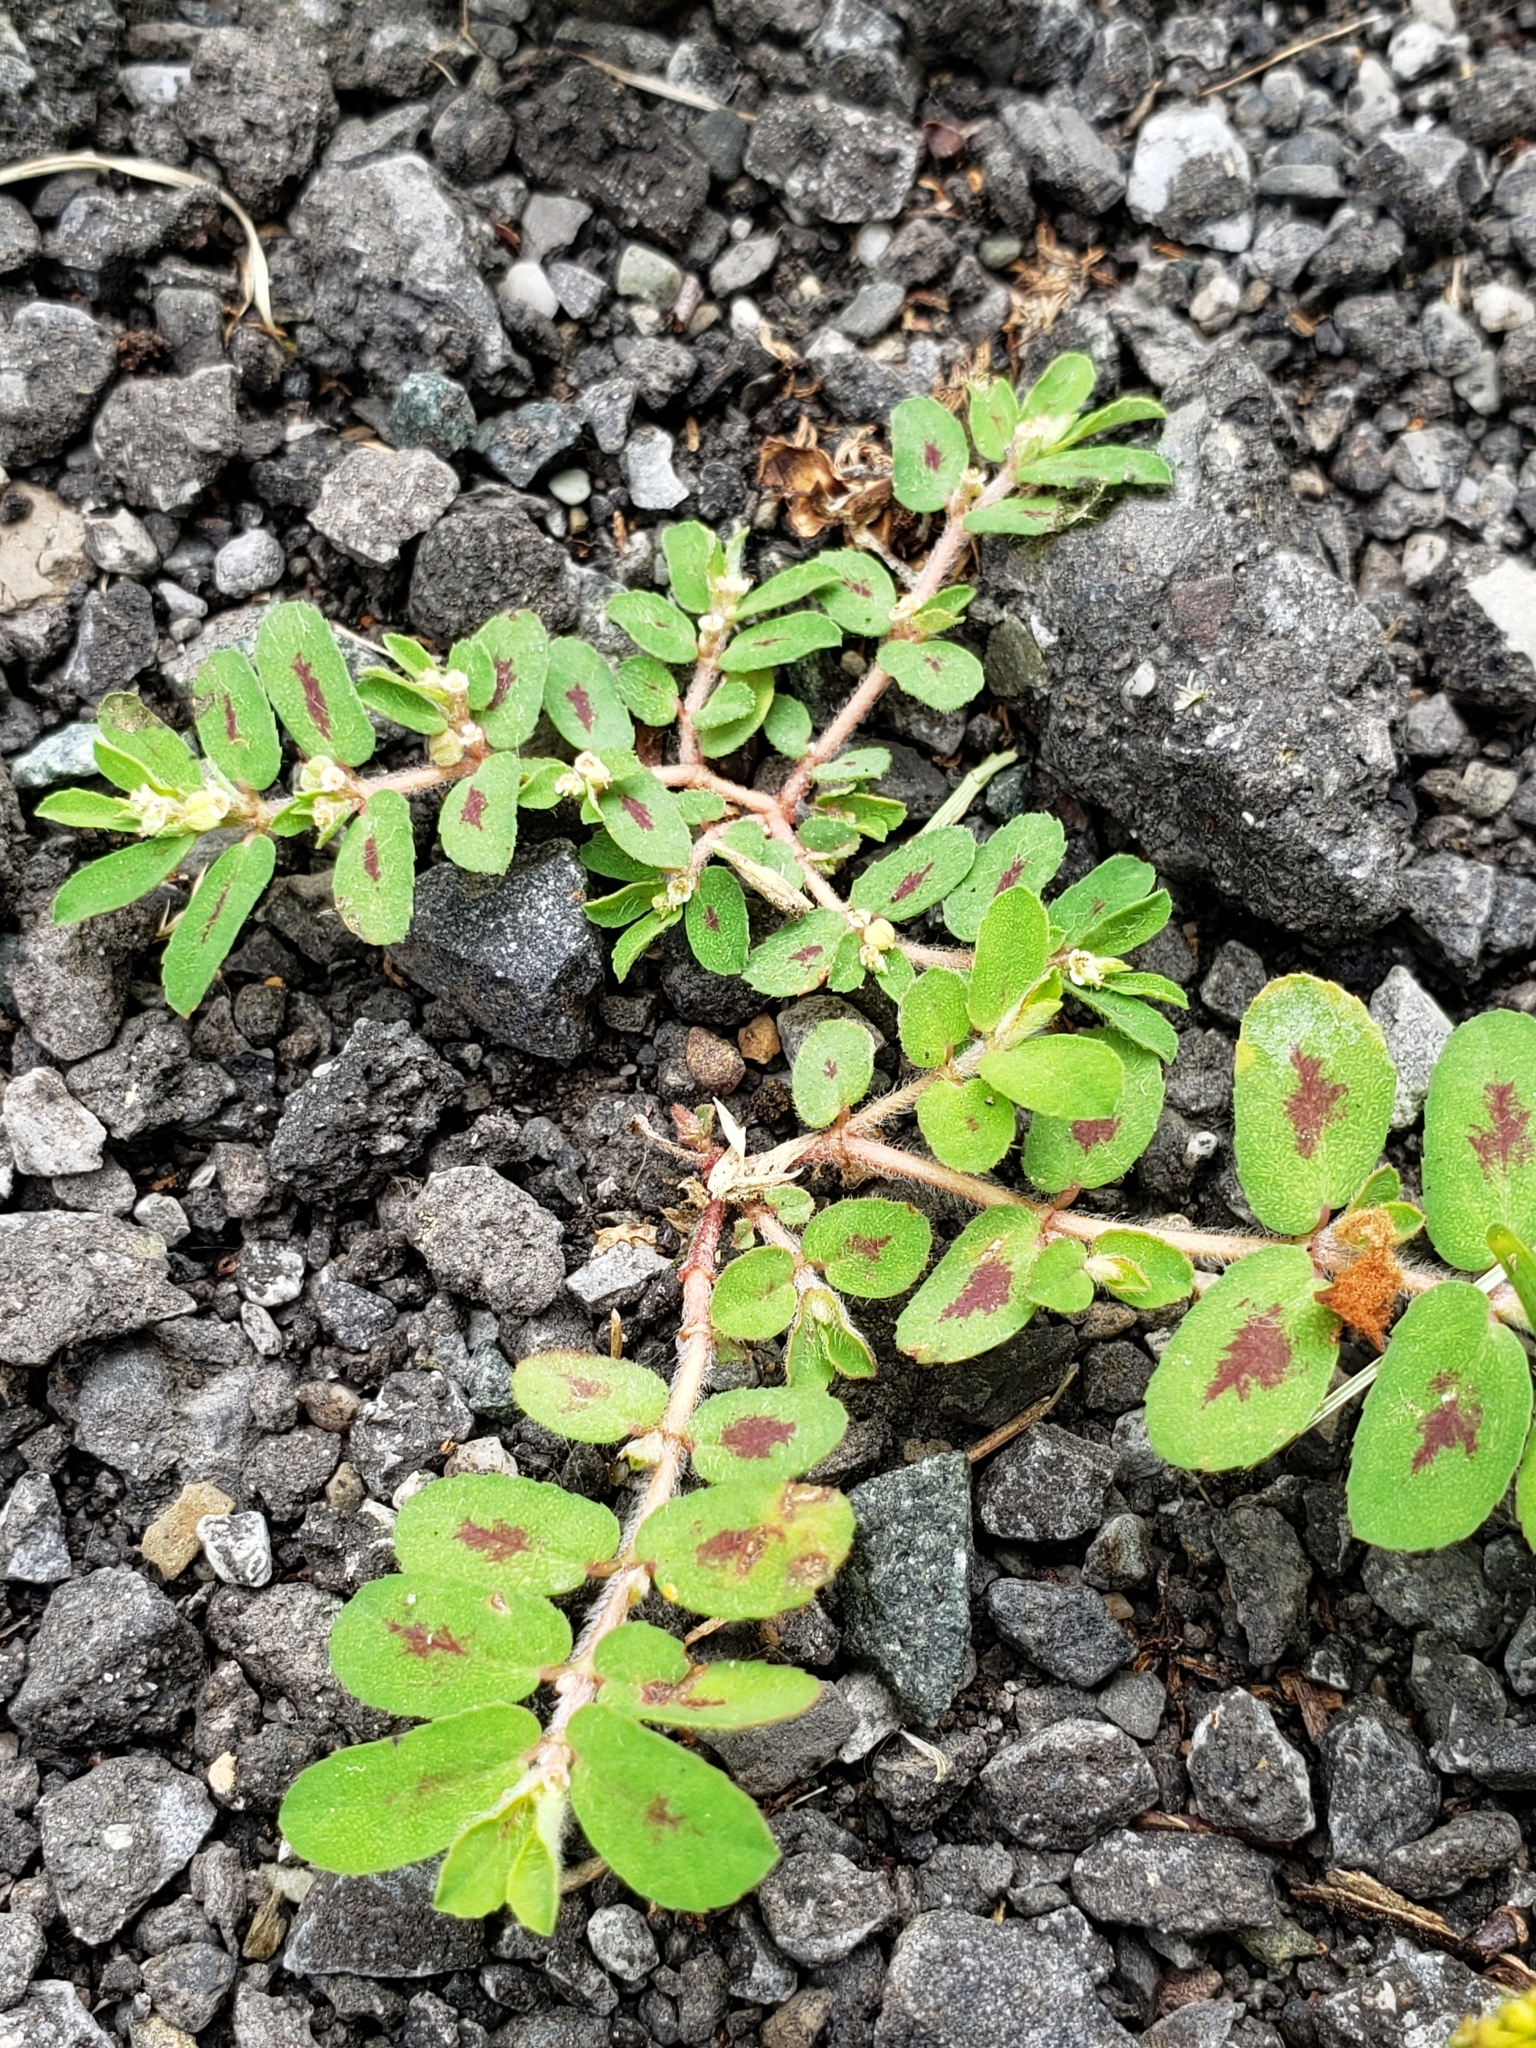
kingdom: Plantae
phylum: Tracheophyta
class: Magnoliopsida
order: Malpighiales
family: Euphorbiaceae
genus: Euphorbia
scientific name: Euphorbia maculata
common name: Spotted spurge
